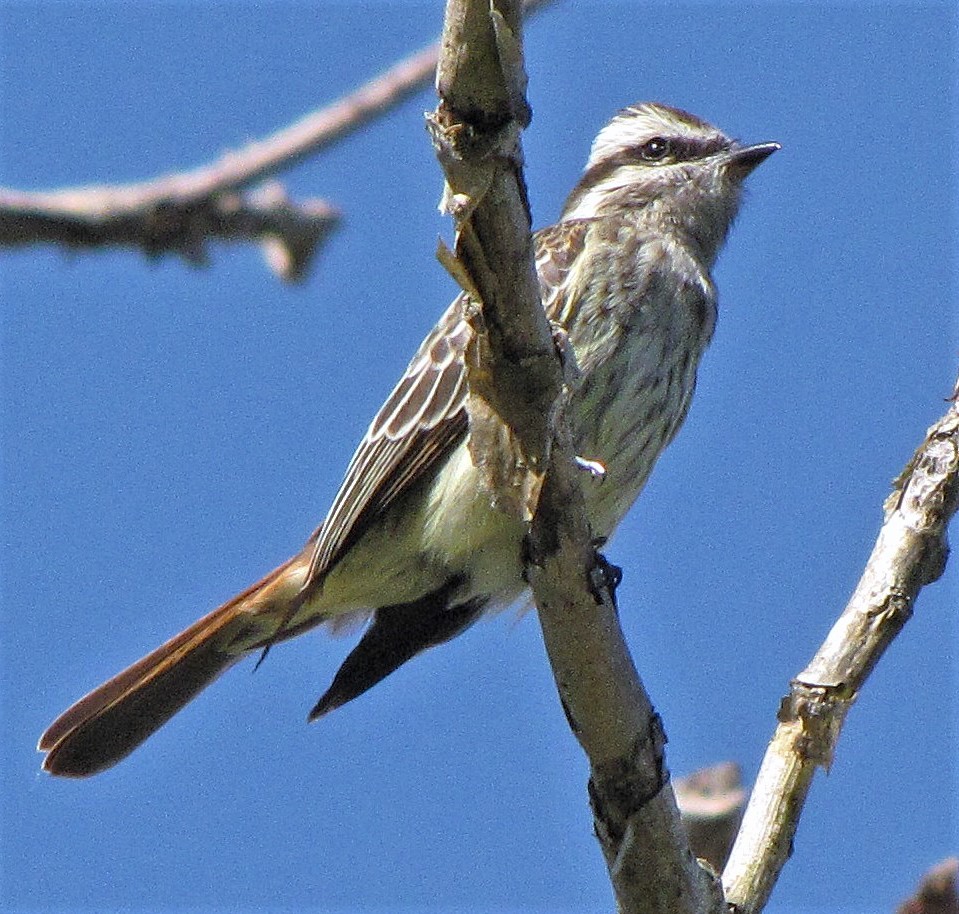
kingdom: Animalia
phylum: Chordata
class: Aves
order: Passeriformes
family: Tyrannidae
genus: Empidonomus
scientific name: Empidonomus varius
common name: Variegated flycatcher
